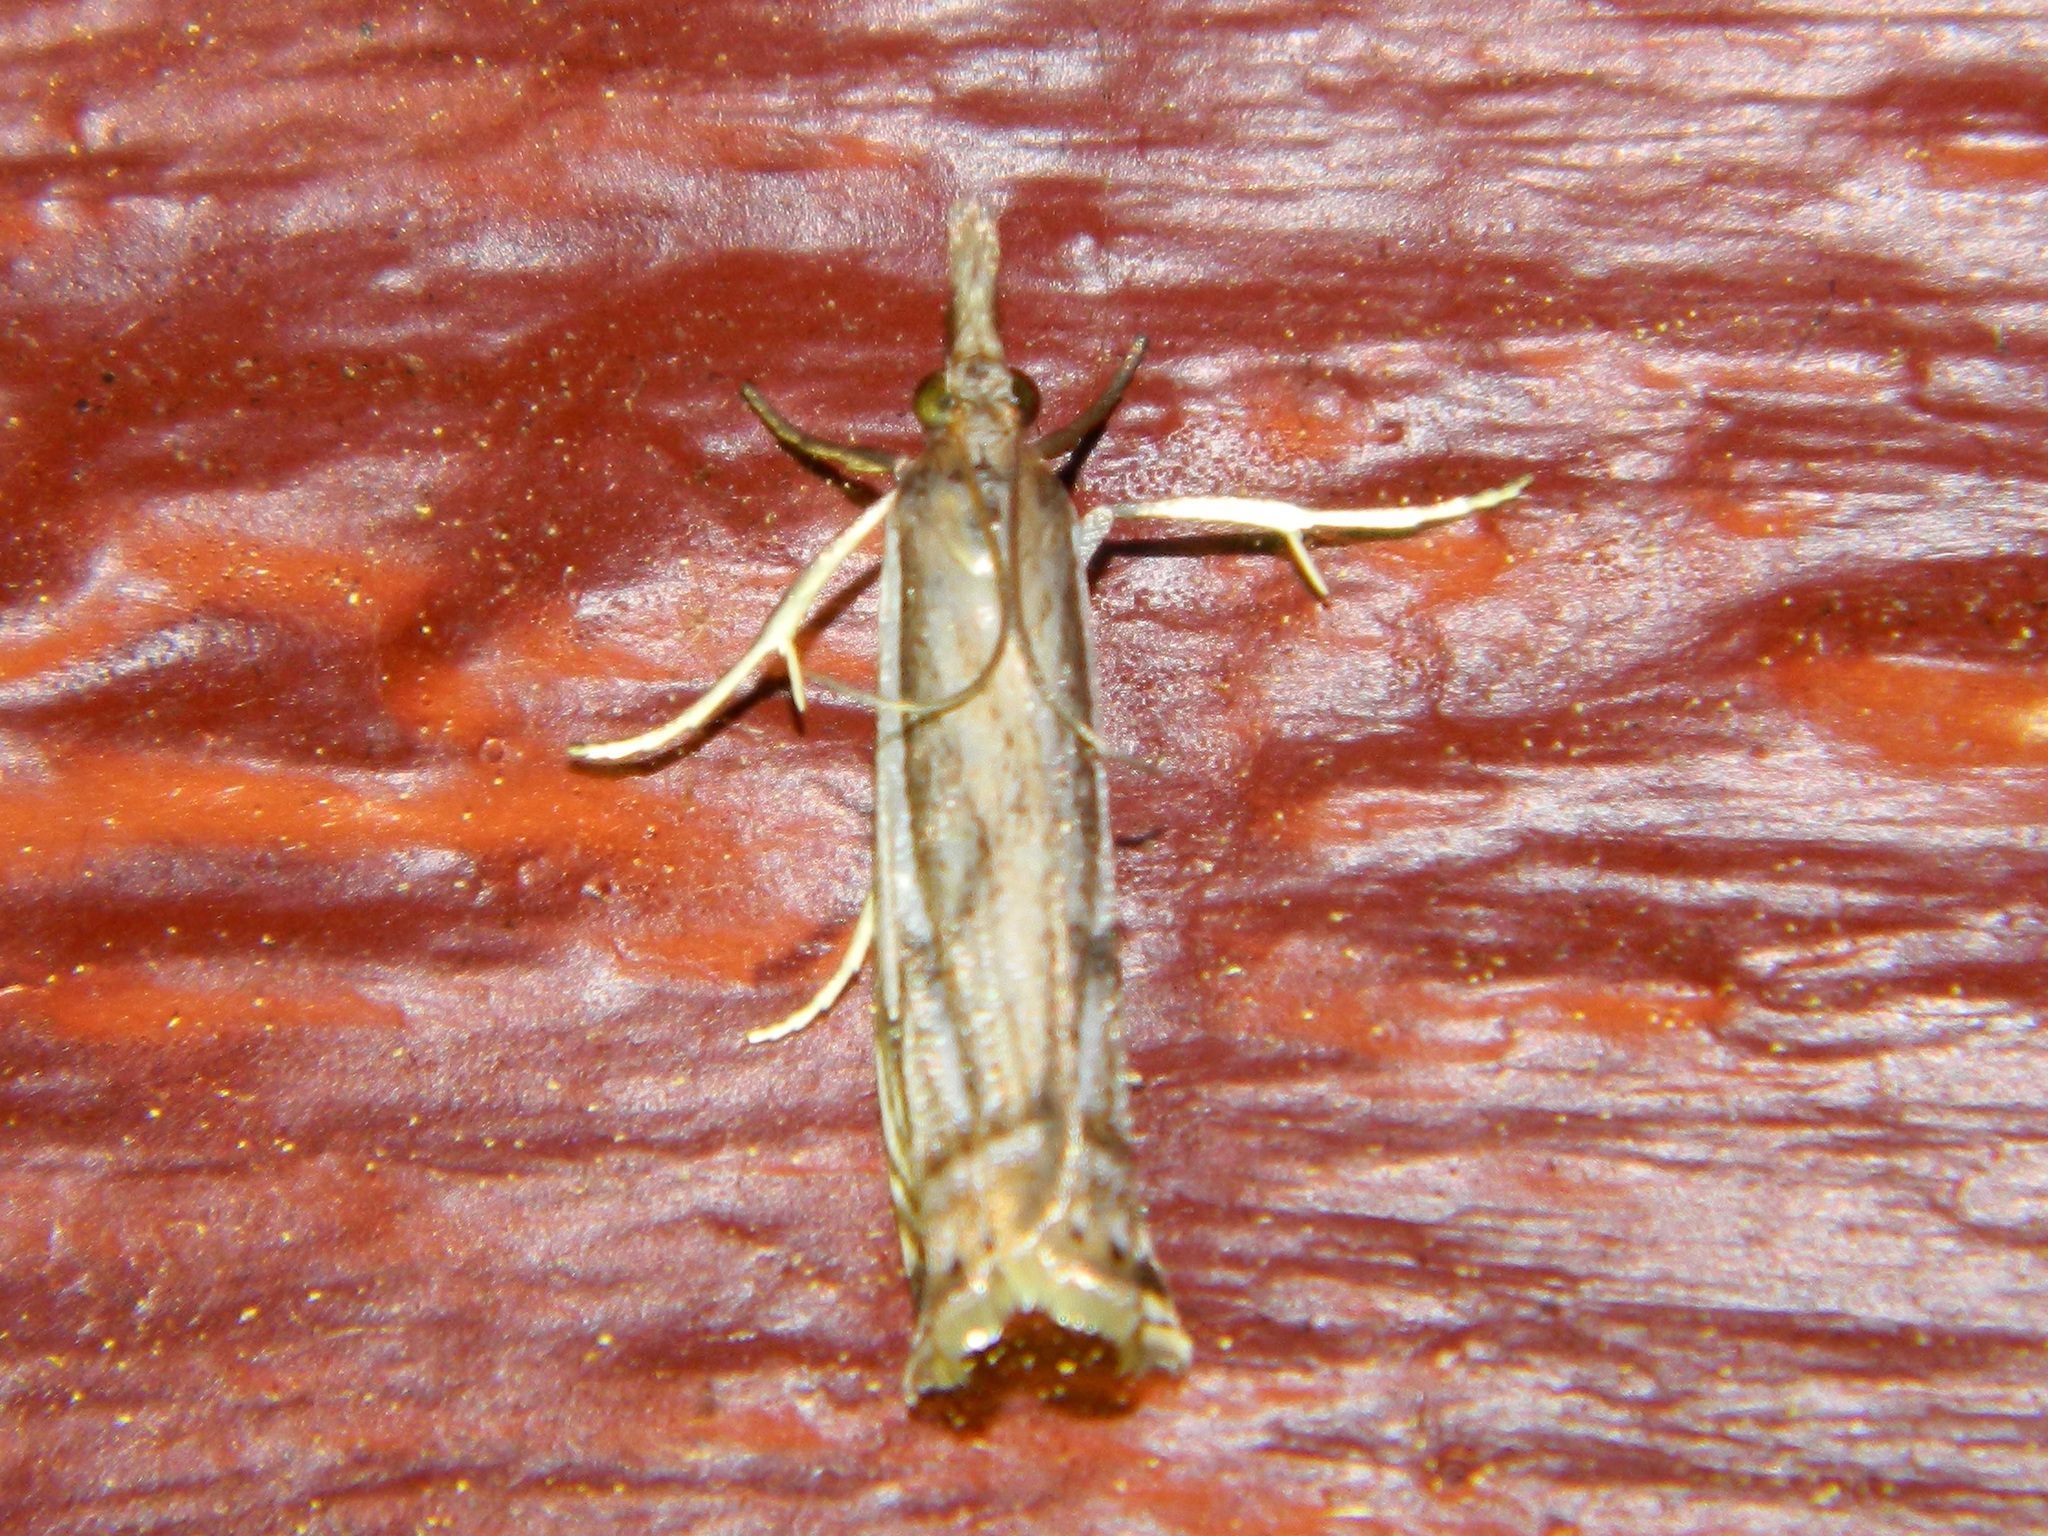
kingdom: Animalia
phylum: Arthropoda
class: Insecta
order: Lepidoptera
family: Crambidae
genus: Crambus
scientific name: Crambus agitatellus
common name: Double-banded grass-veneer
